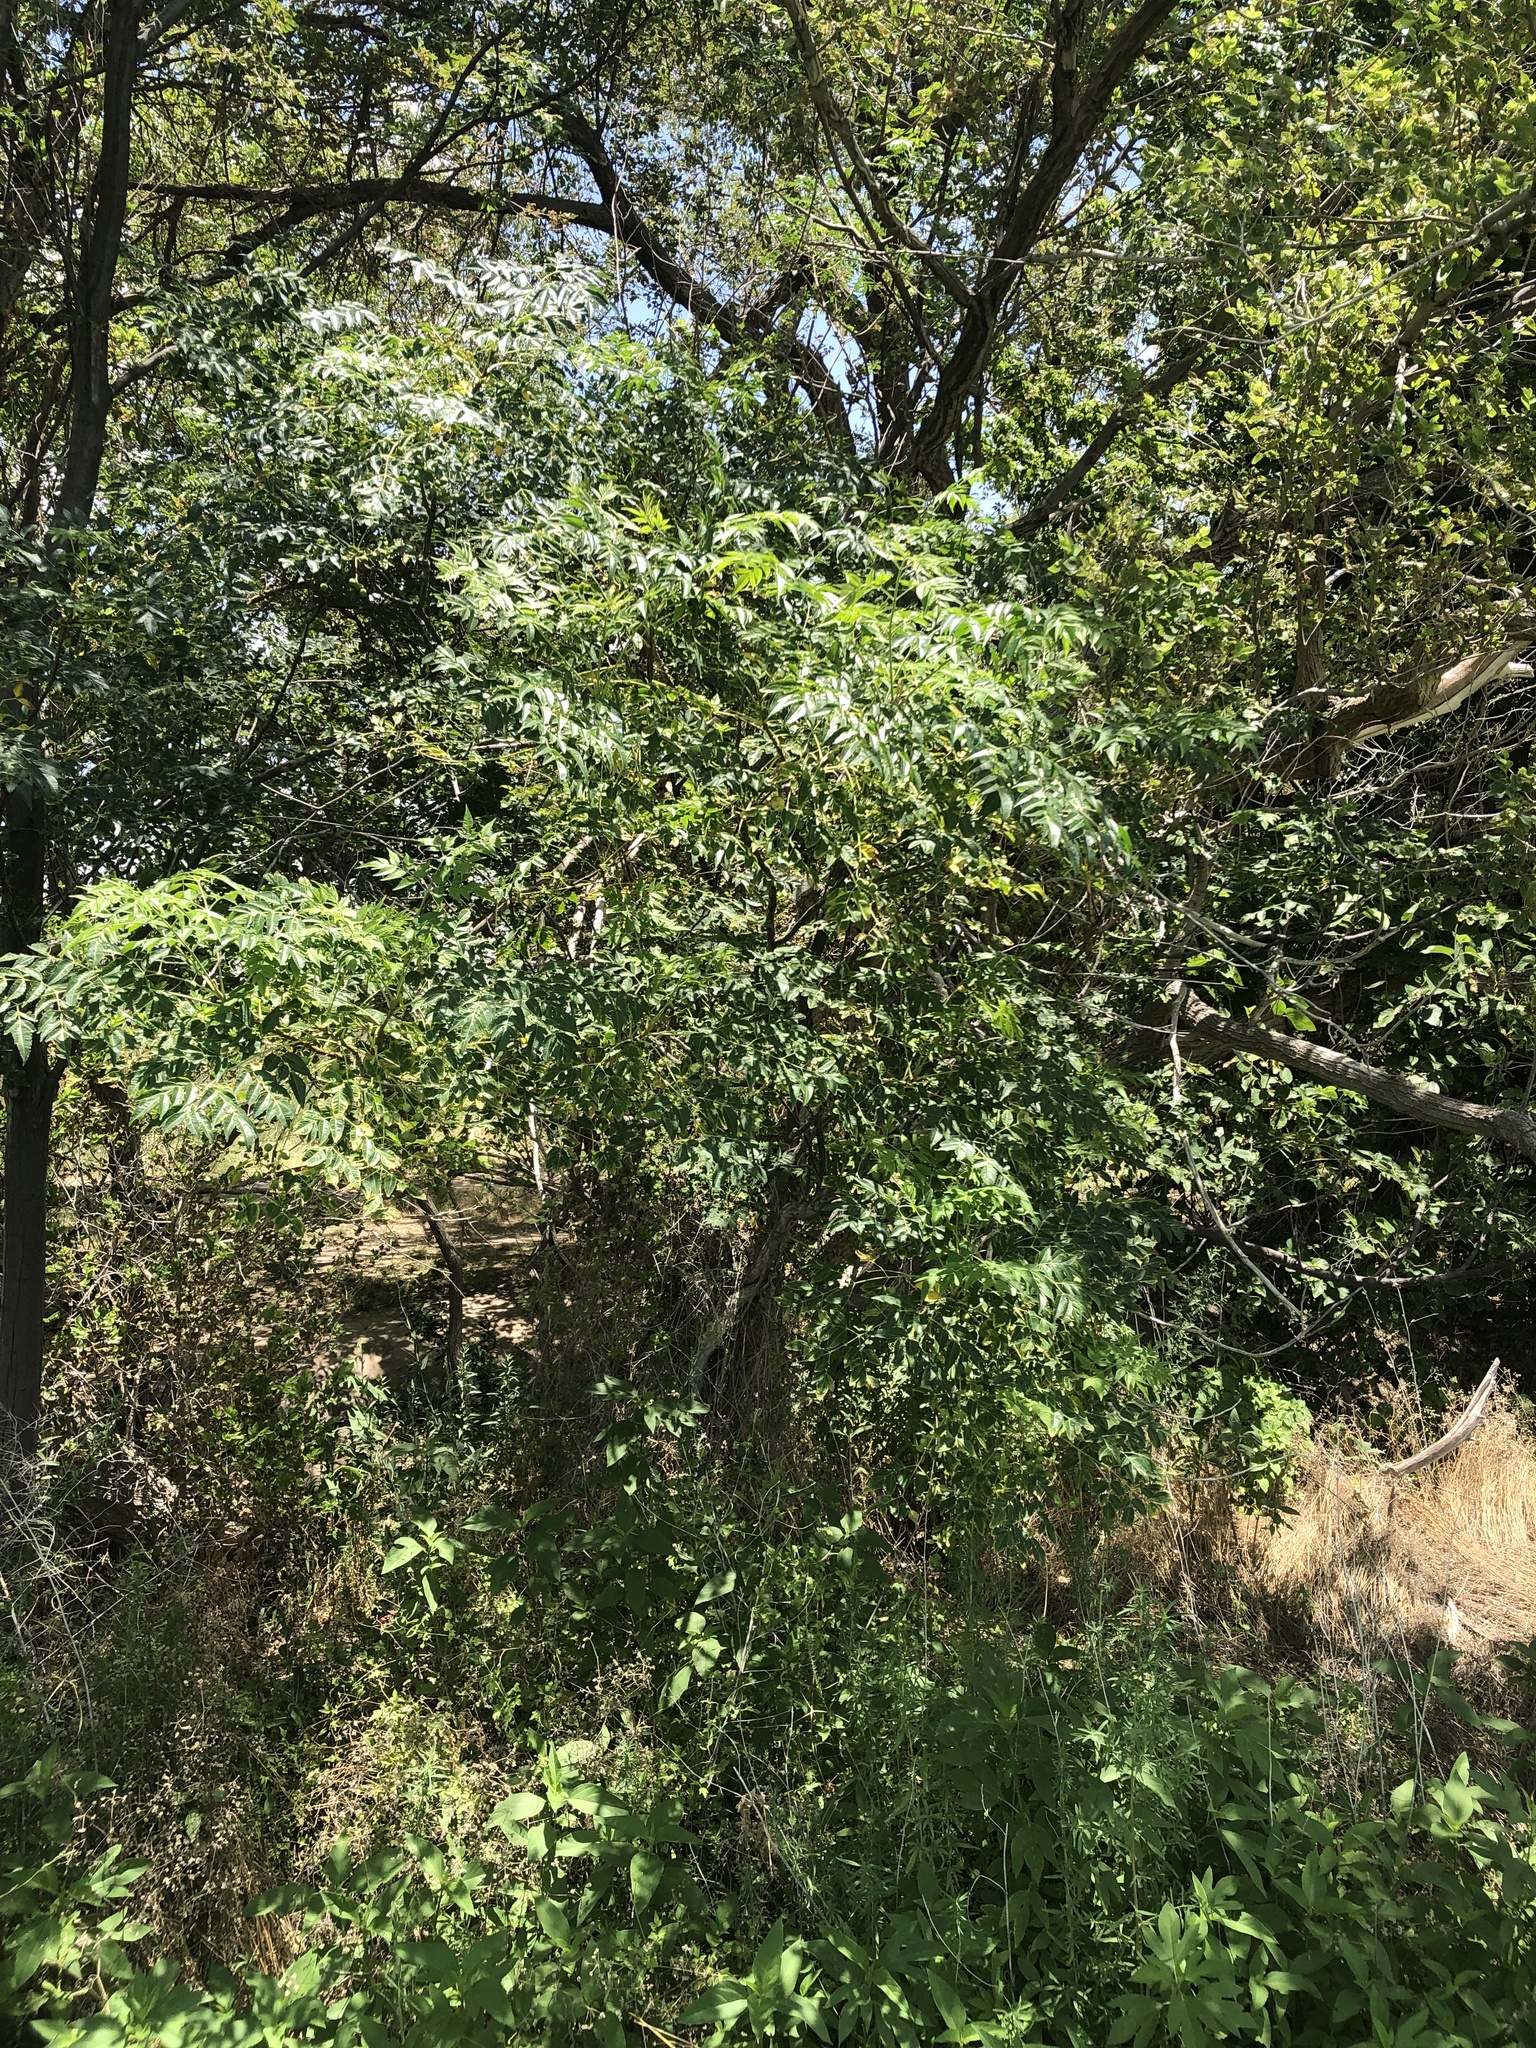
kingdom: Plantae
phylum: Tracheophyta
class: Magnoliopsida
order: Sapindales
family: Meliaceae
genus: Melia
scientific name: Melia azedarach
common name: Chinaberrytree
